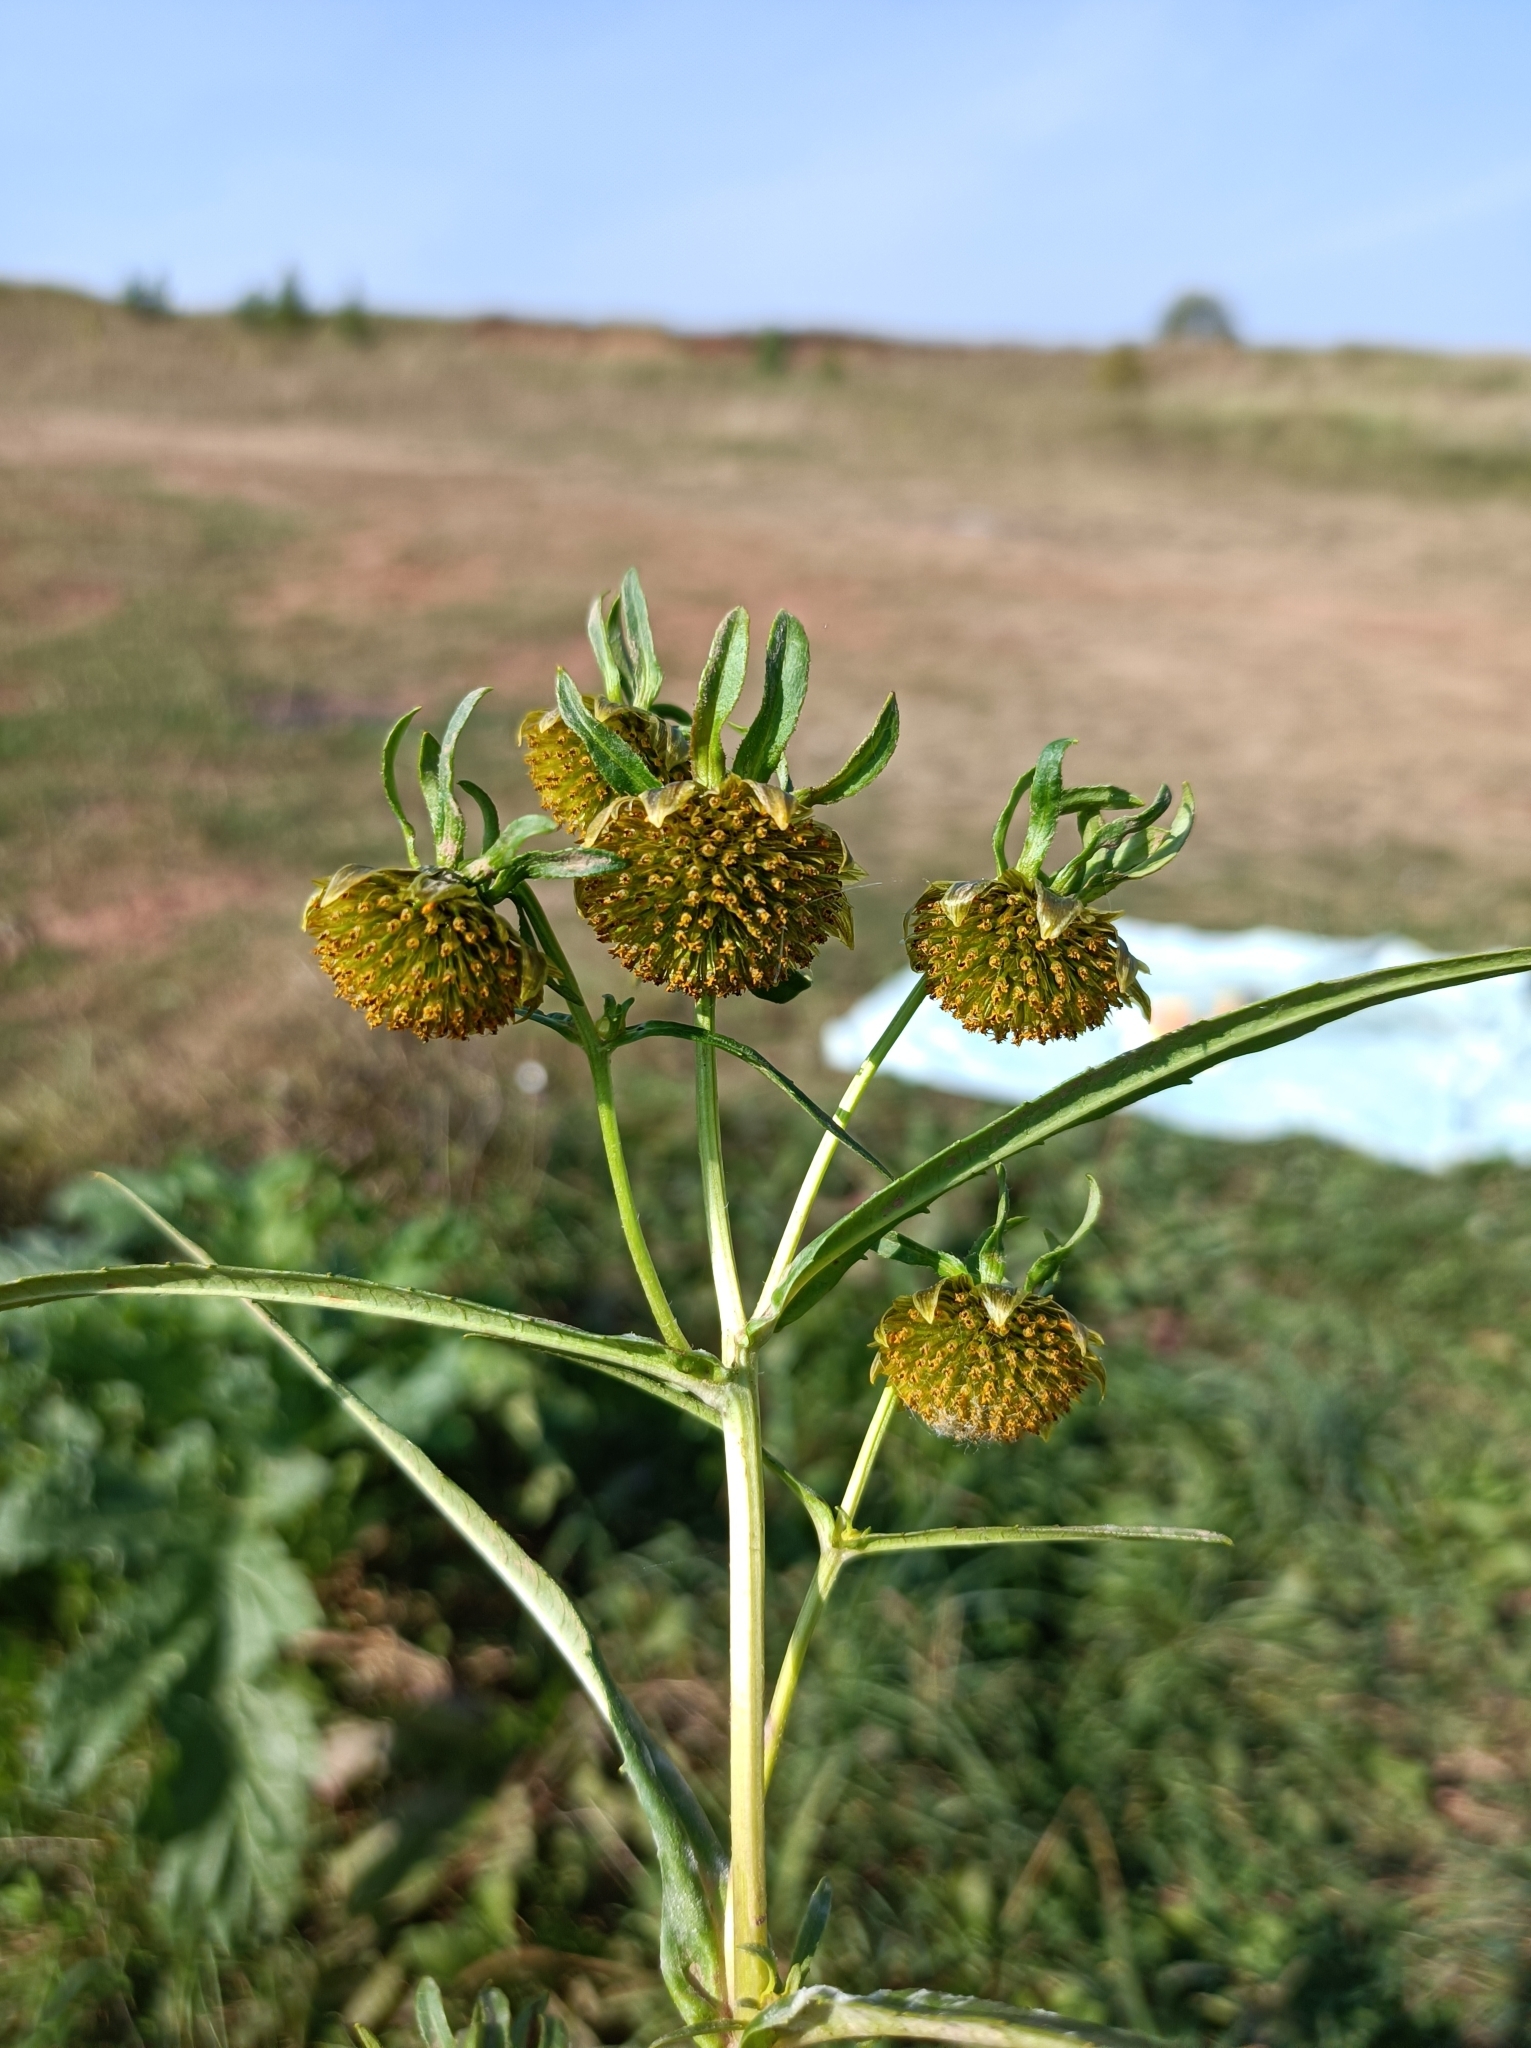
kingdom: Plantae
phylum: Tracheophyta
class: Magnoliopsida
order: Asterales
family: Asteraceae
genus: Bidens
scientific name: Bidens cernua
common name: Nodding bur-marigold
